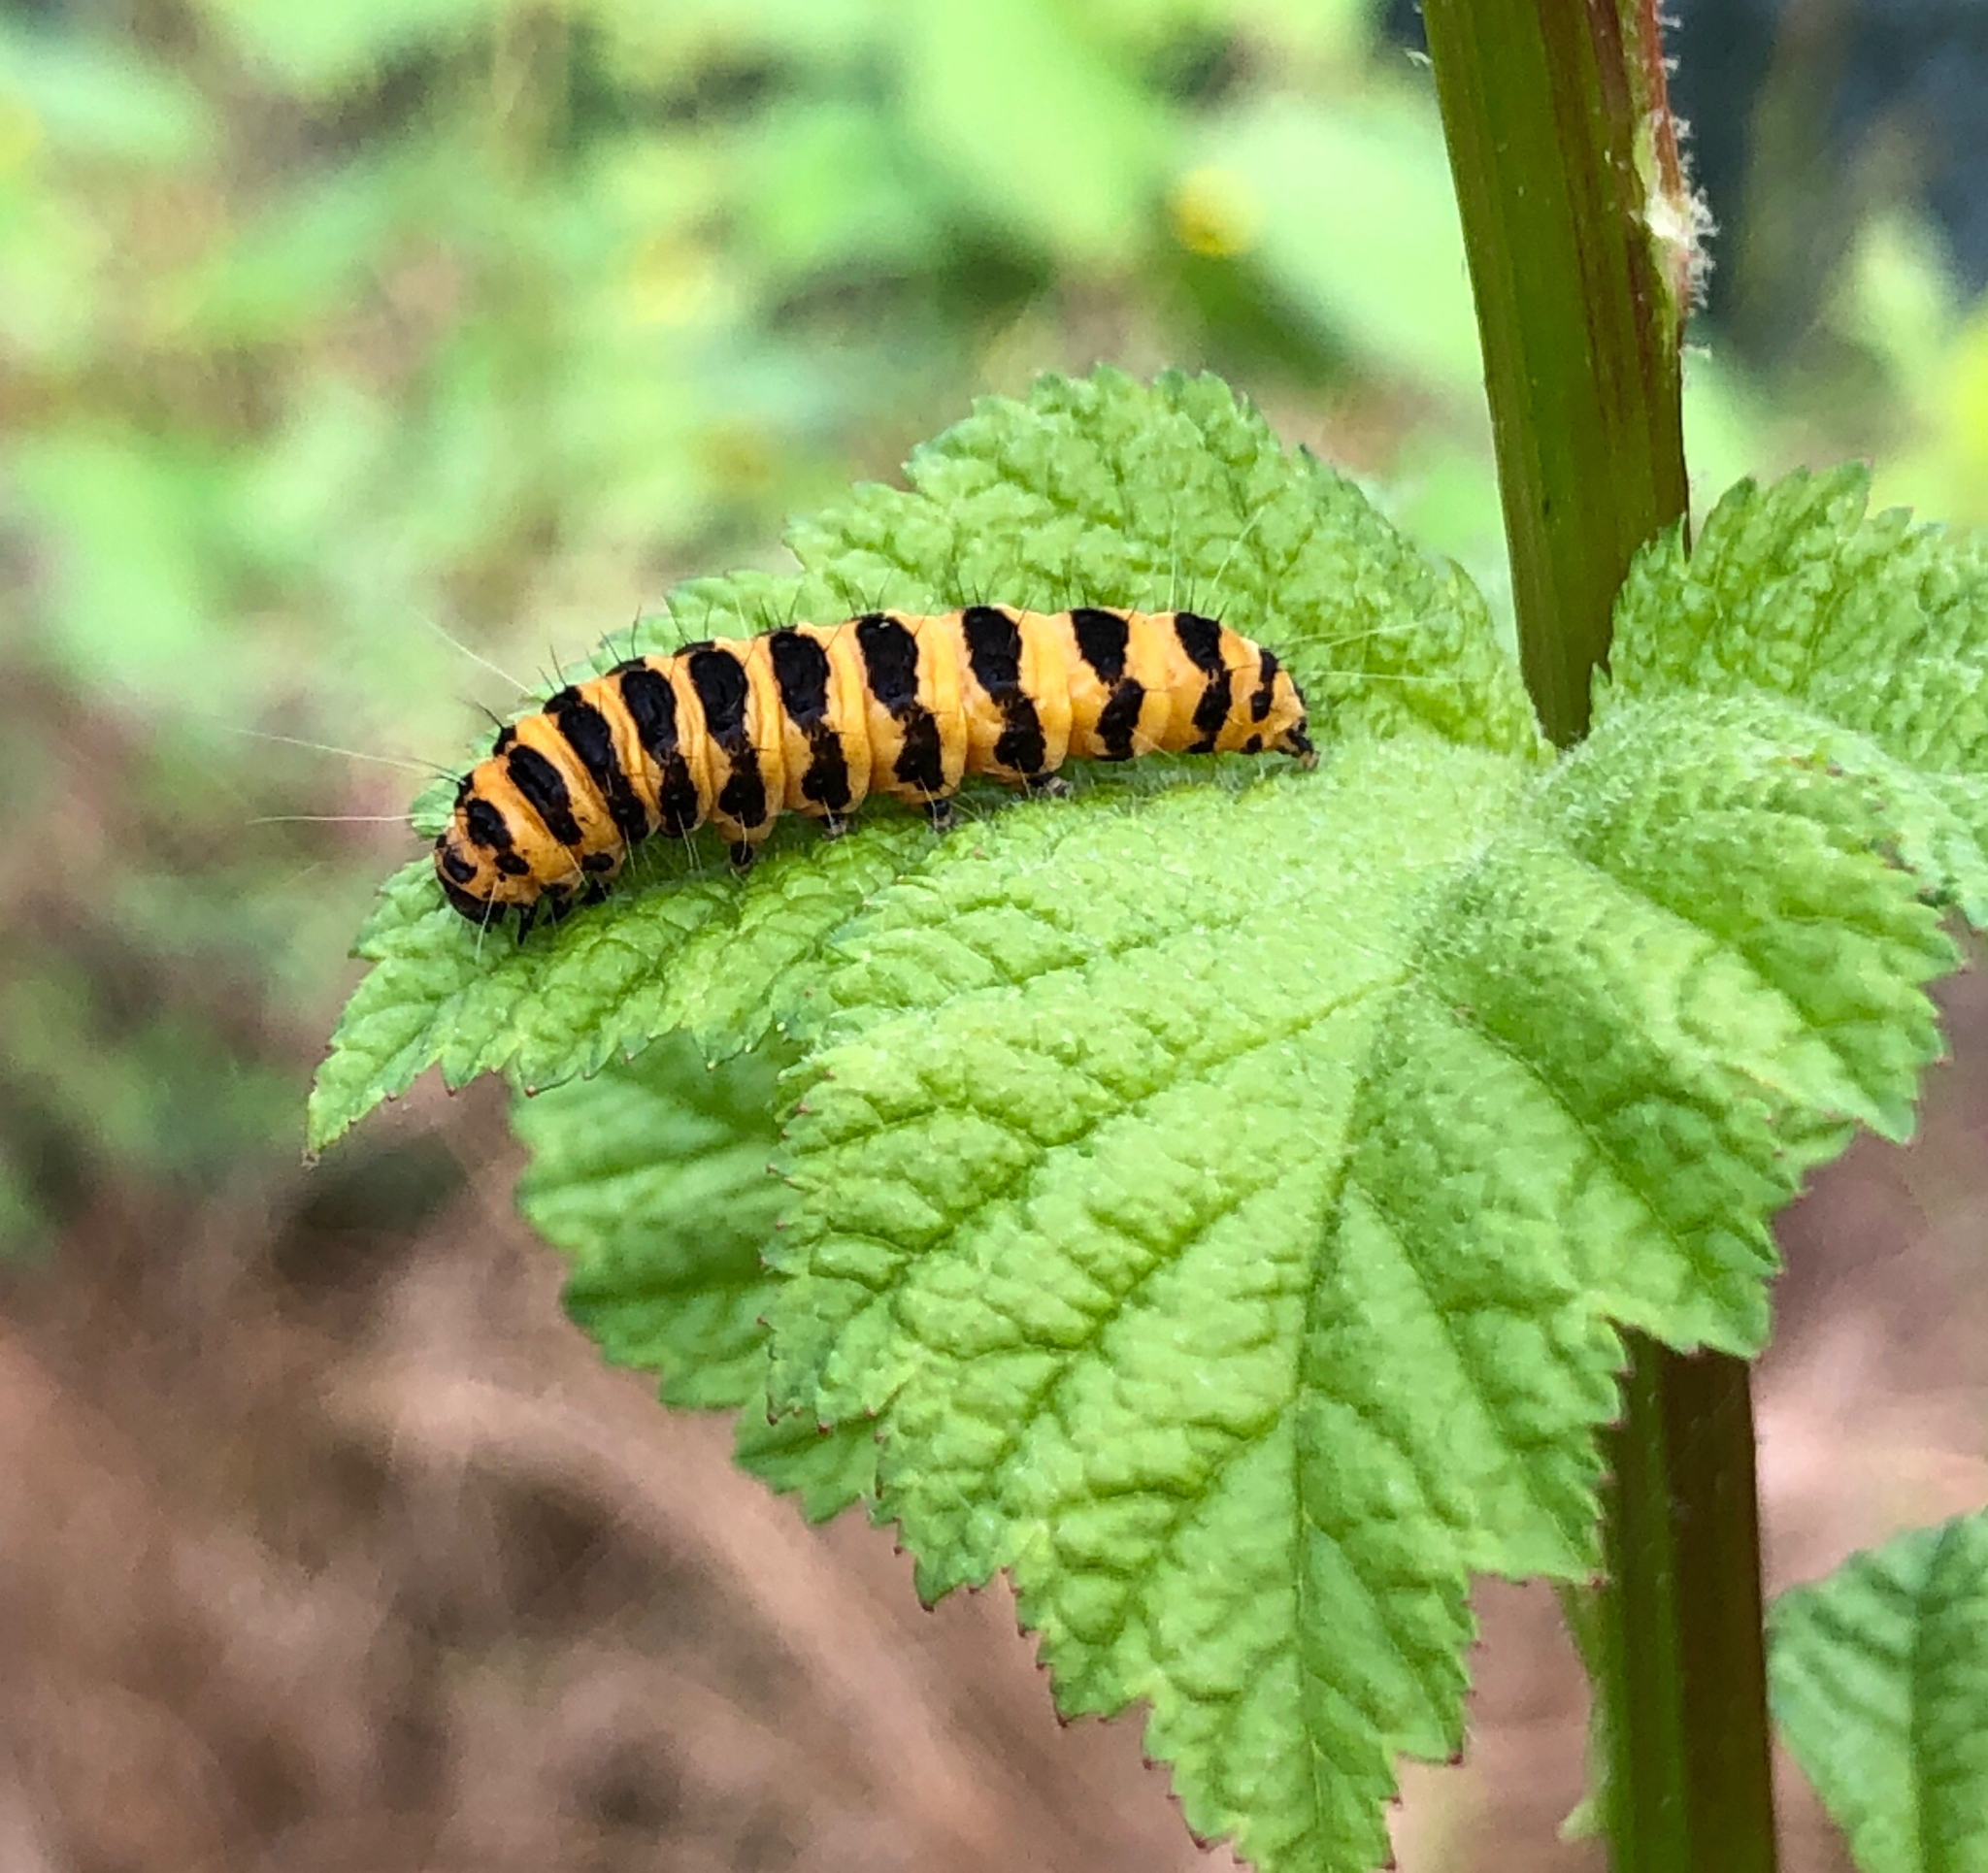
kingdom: Animalia
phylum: Arthropoda
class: Insecta
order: Lepidoptera
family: Erebidae
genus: Tyria
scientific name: Tyria jacobaeae
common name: Cinnabar
